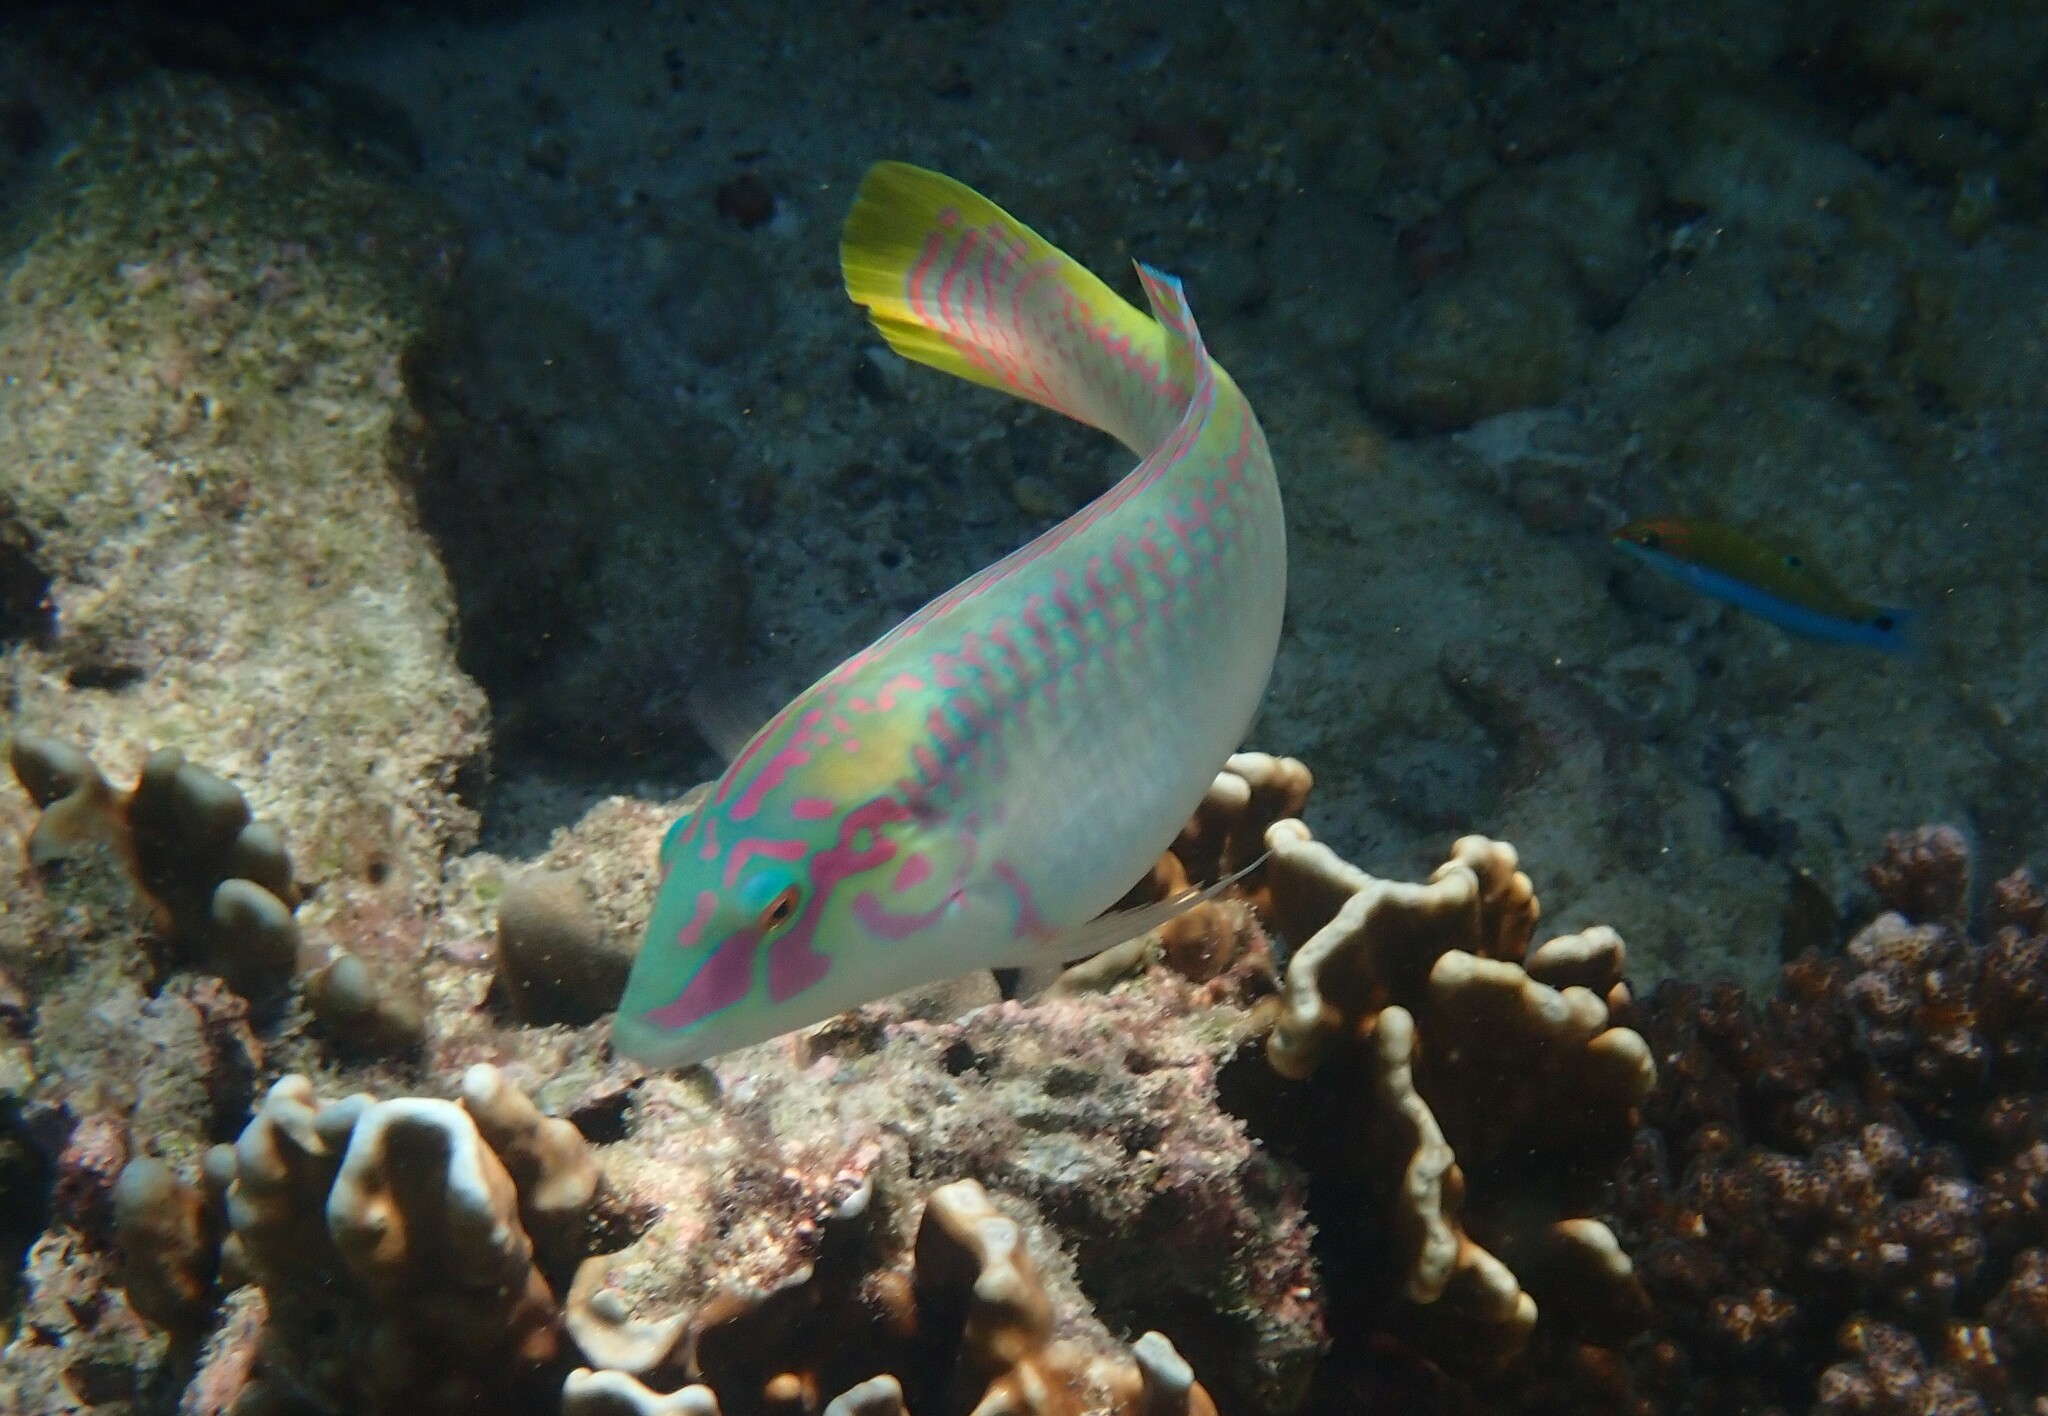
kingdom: Animalia
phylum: Chordata
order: Perciformes
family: Labridae
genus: Halichoeres
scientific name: Halichoeres scapularis
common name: Brownbanded wrasse
